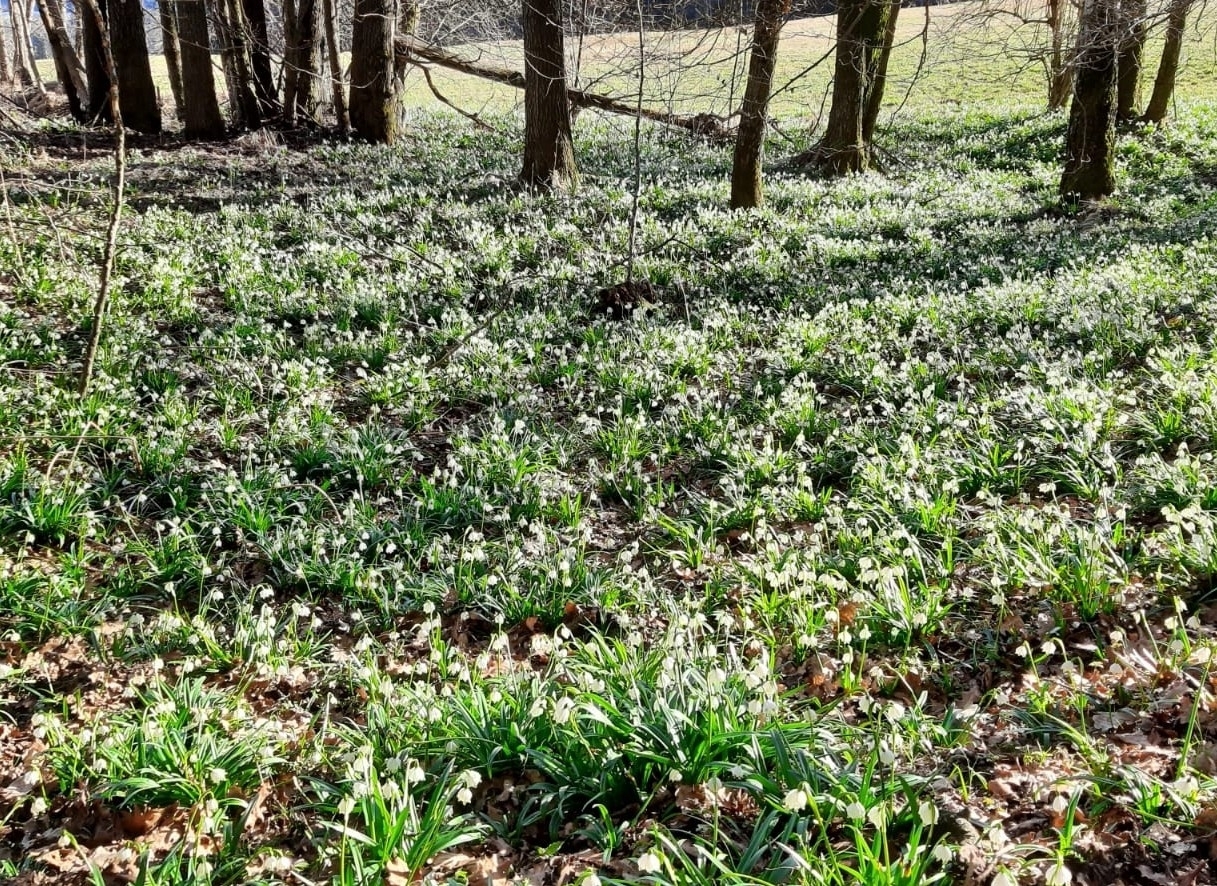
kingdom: Plantae
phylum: Tracheophyta
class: Liliopsida
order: Asparagales
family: Amaryllidaceae
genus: Leucojum
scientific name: Leucojum vernum
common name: Spring snowflake
